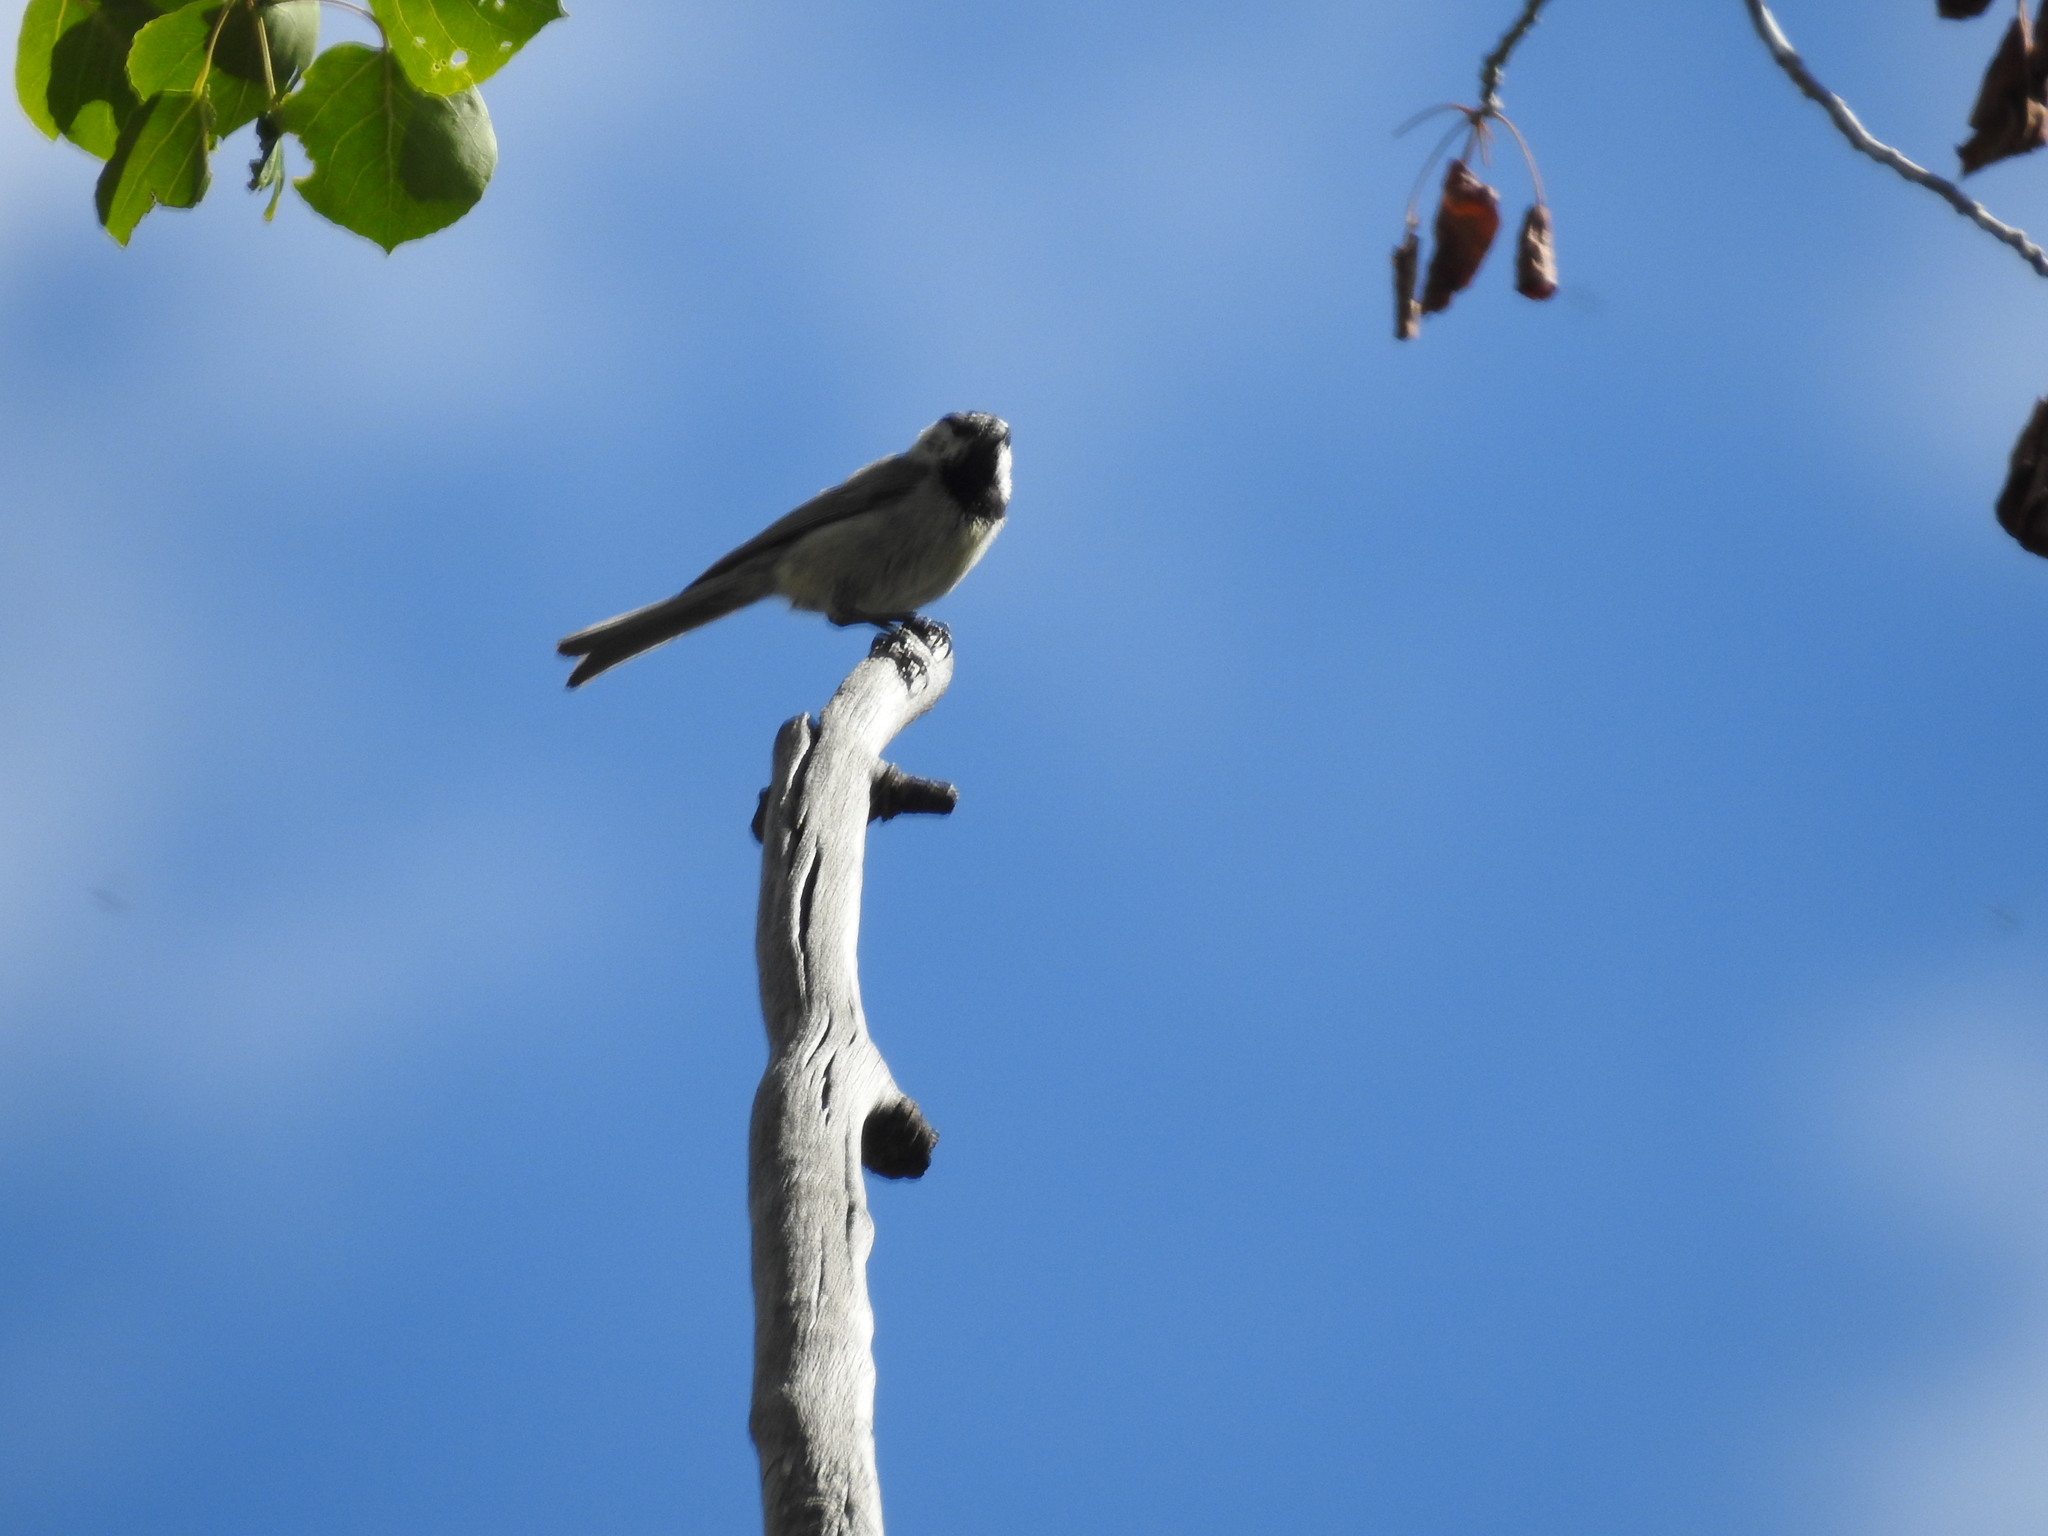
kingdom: Animalia
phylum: Chordata
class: Aves
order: Passeriformes
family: Paridae
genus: Poecile
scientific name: Poecile gambeli
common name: Mountain chickadee
